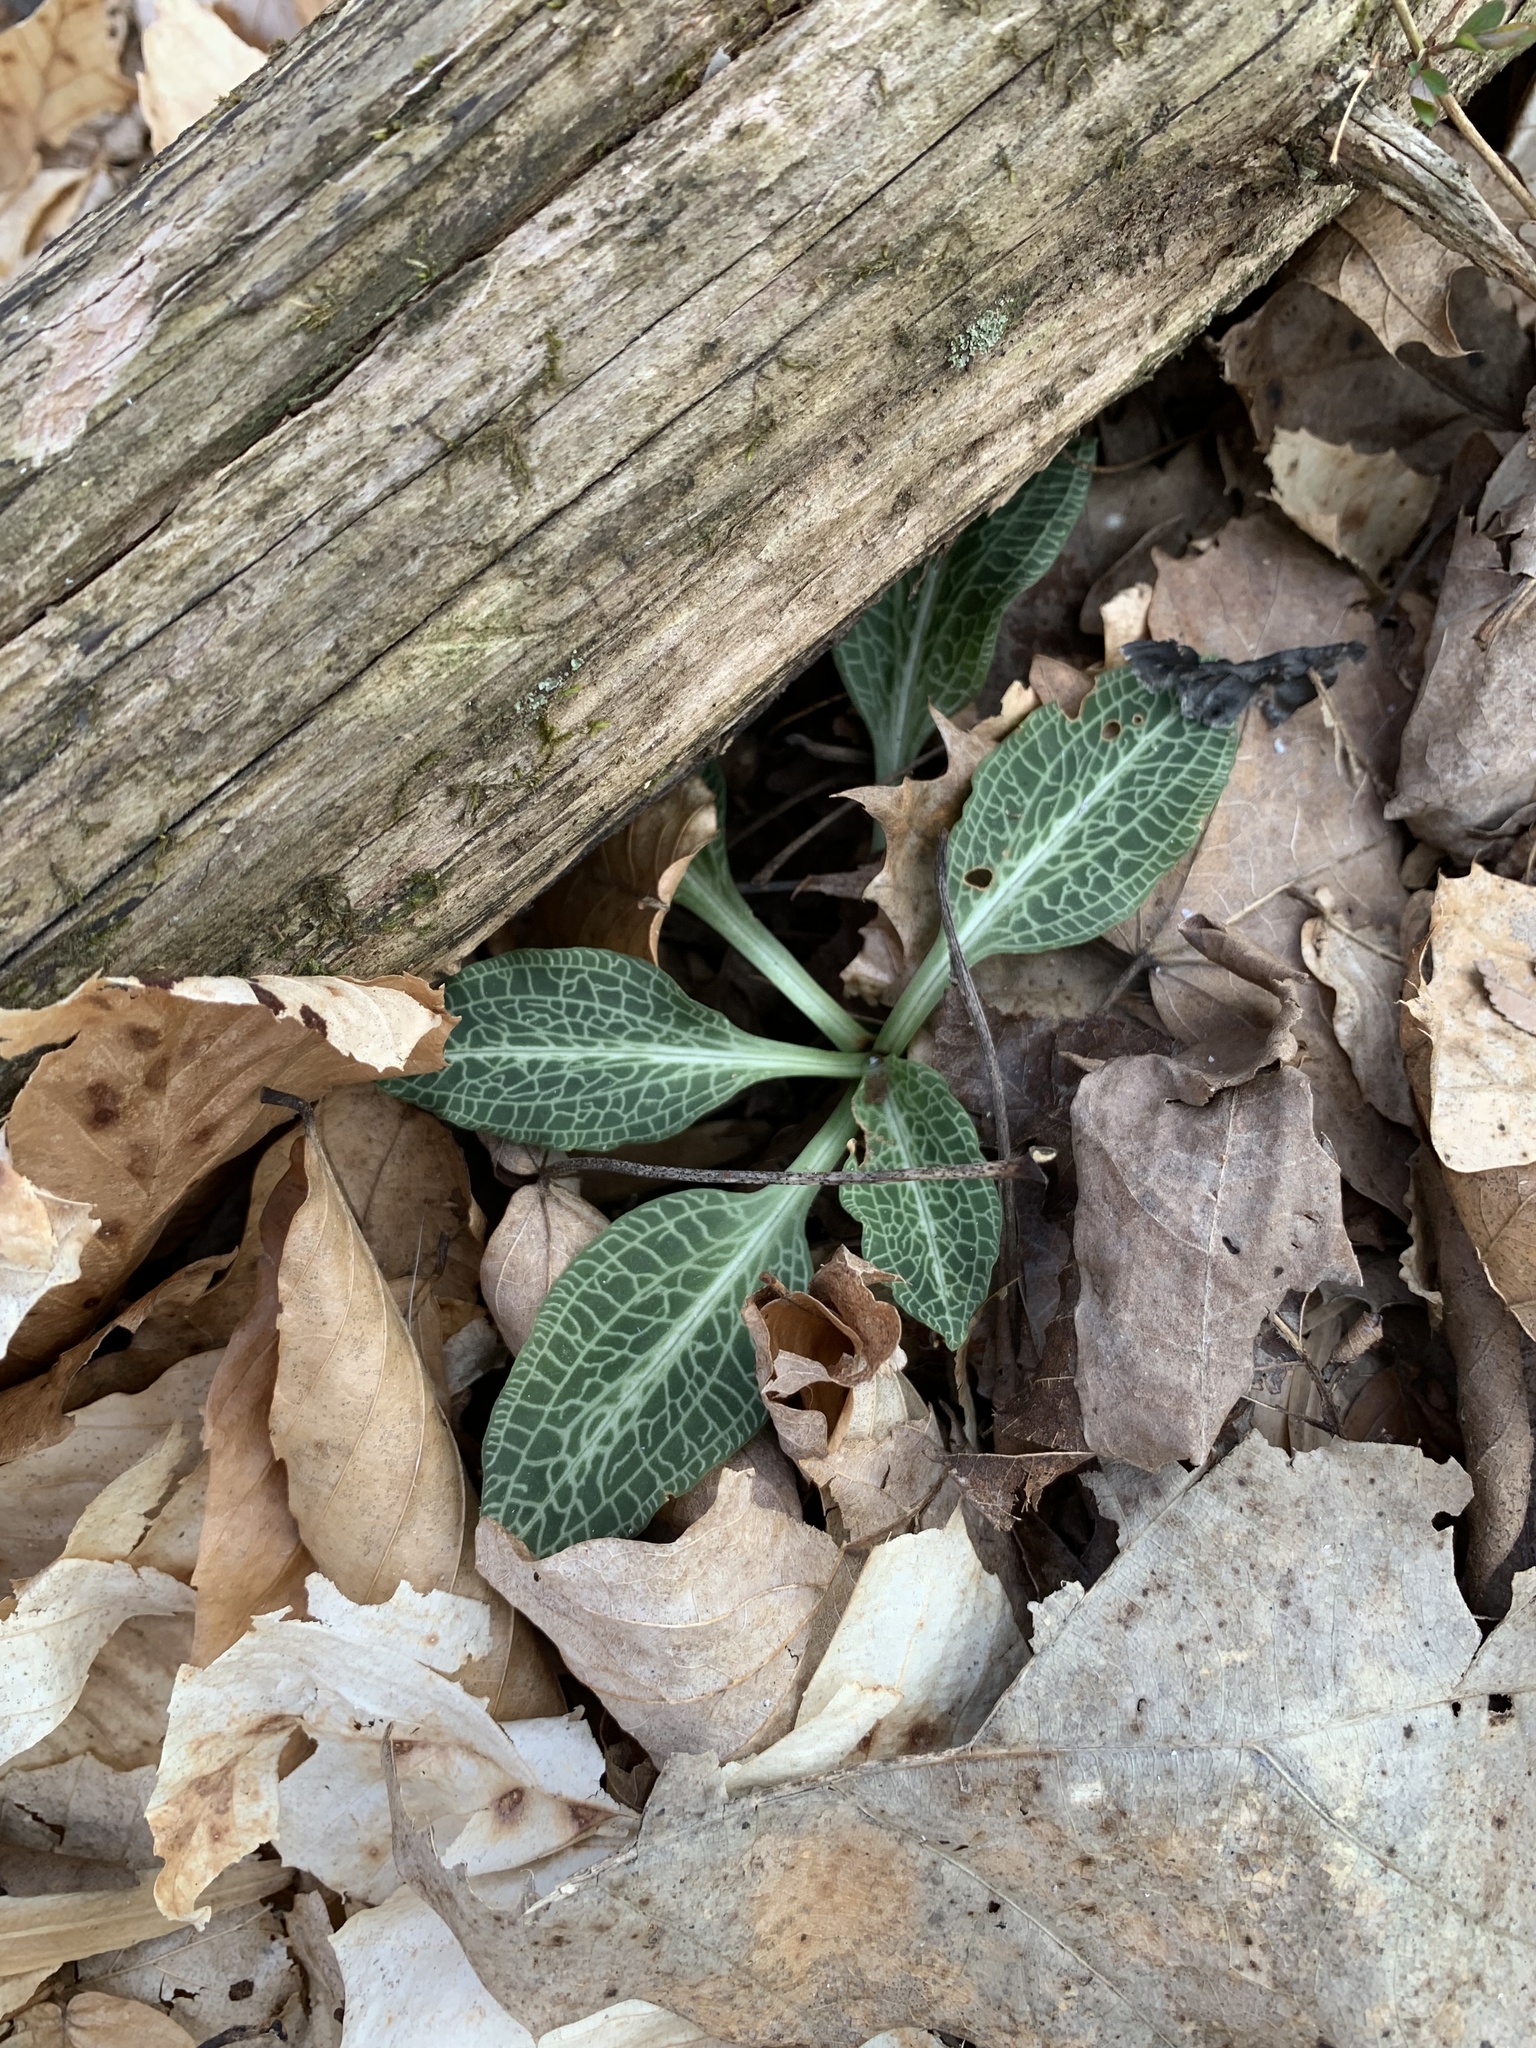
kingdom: Plantae
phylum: Tracheophyta
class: Liliopsida
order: Asparagales
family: Orchidaceae
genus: Goodyera
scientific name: Goodyera pubescens
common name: Downy rattlesnake-plantain
